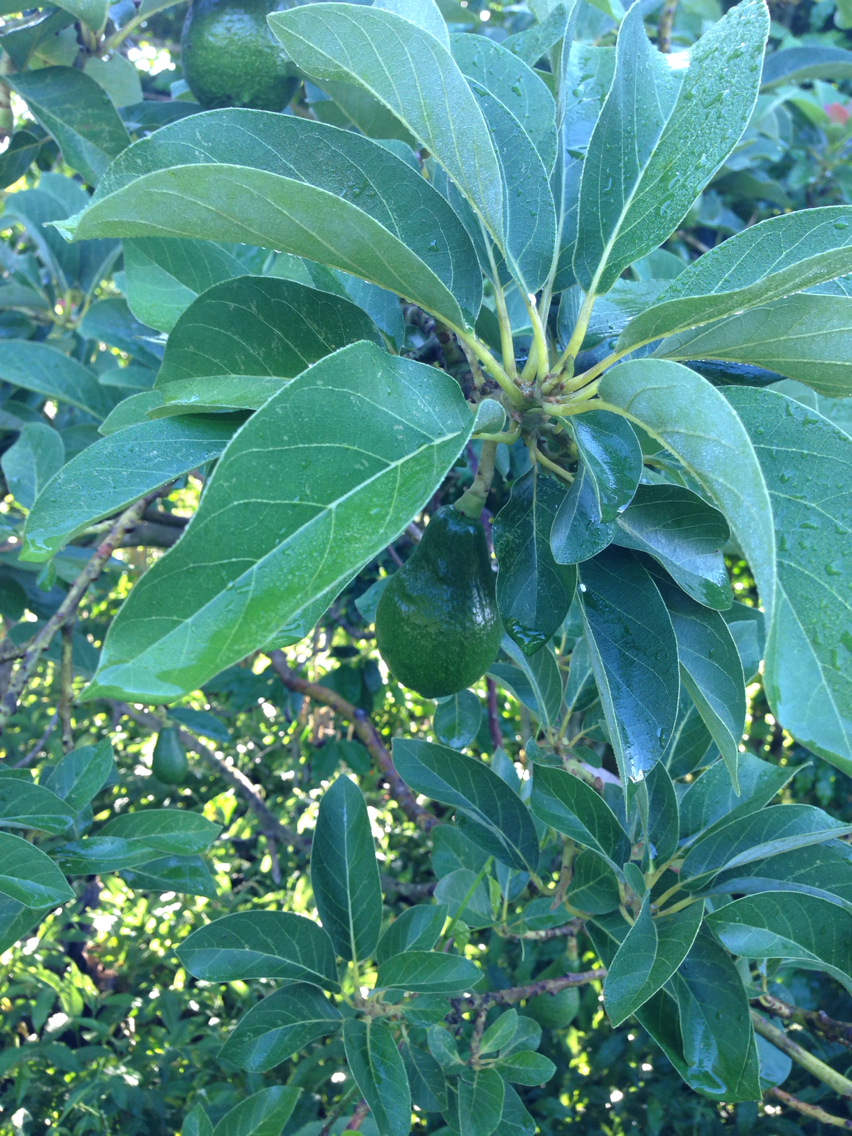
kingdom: Plantae
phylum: Tracheophyta
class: Magnoliopsida
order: Laurales
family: Lauraceae
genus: Persea
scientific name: Persea americana
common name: Avocado
